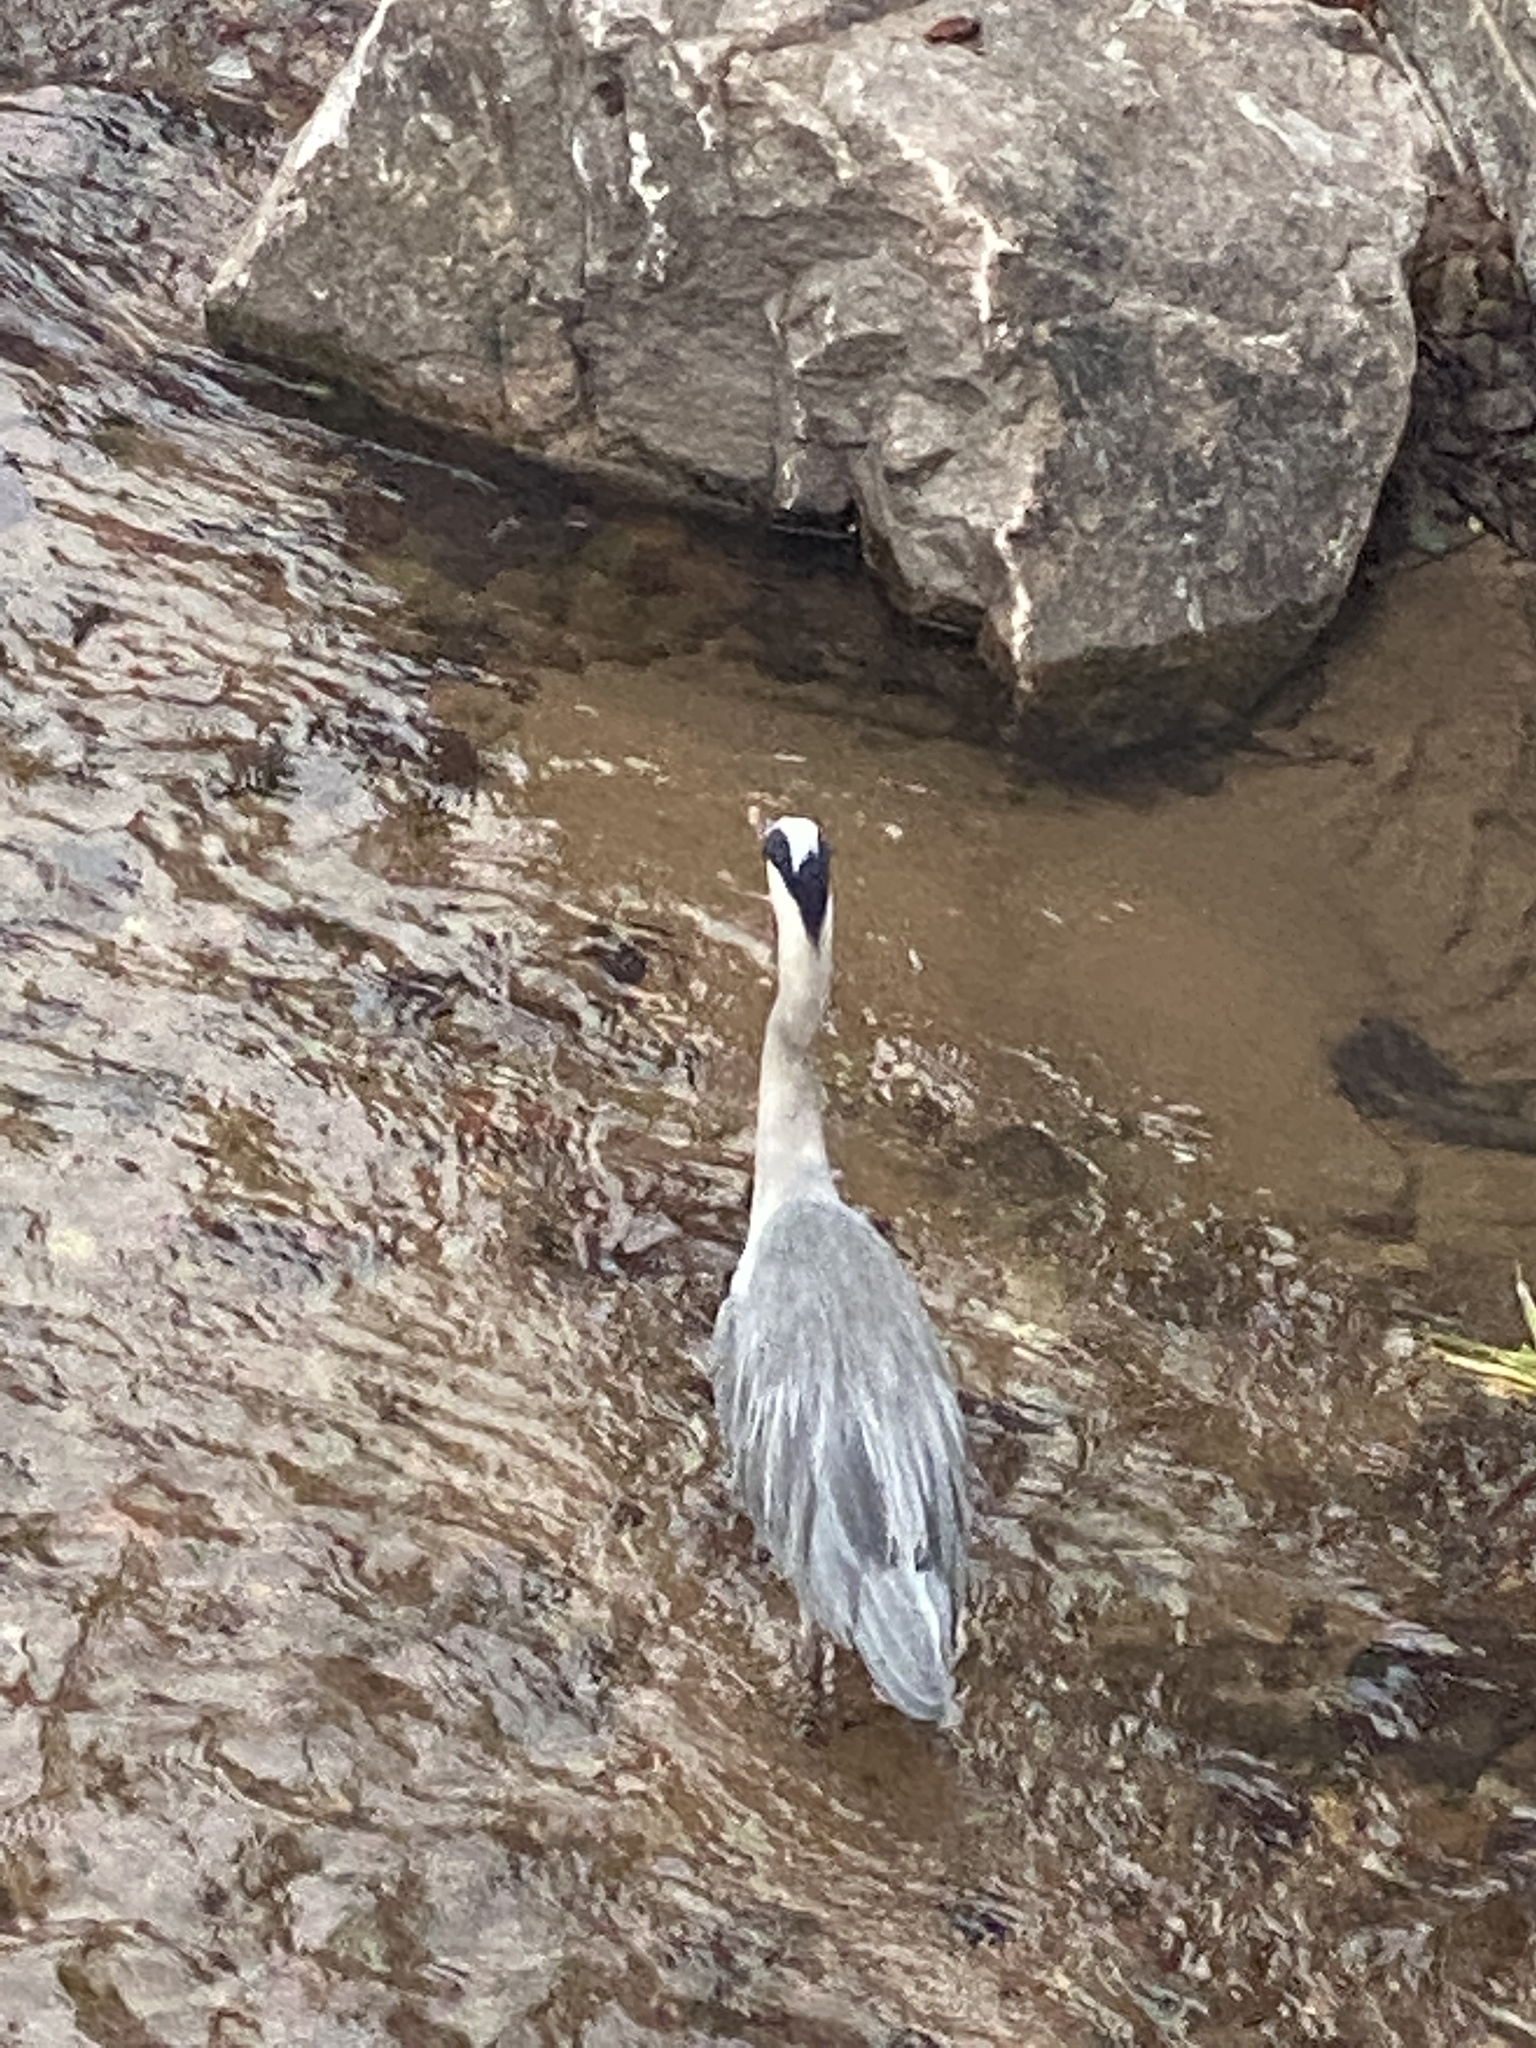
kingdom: Animalia
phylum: Chordata
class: Aves
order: Pelecaniformes
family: Ardeidae
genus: Ardea
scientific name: Ardea cinerea
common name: Grey heron
